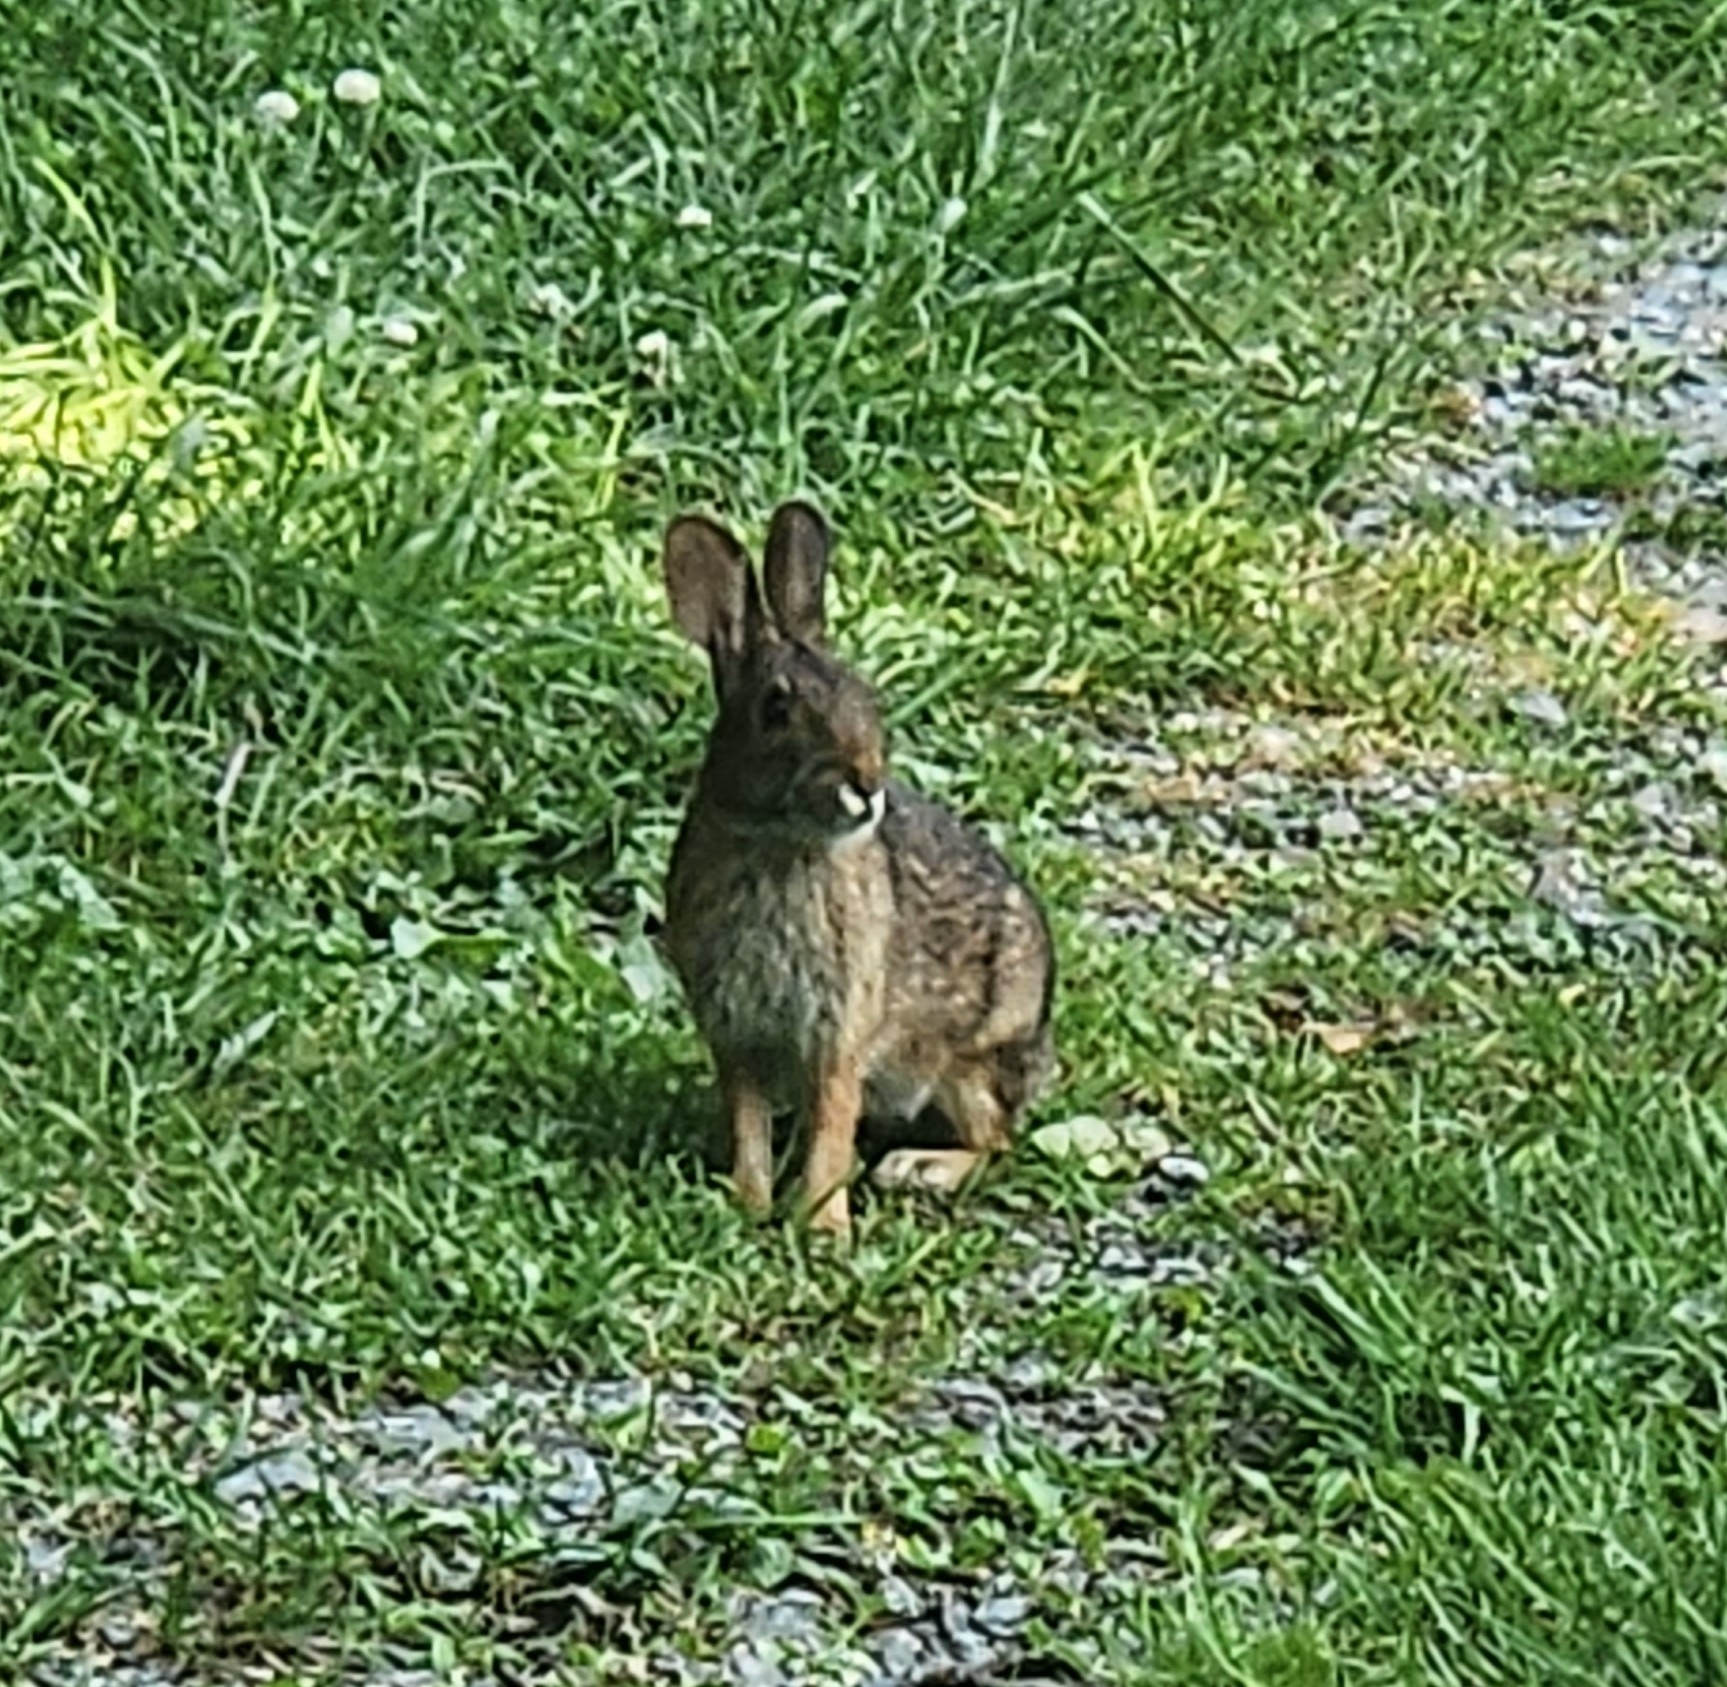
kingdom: Animalia
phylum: Chordata
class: Mammalia
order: Lagomorpha
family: Leporidae
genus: Sylvilagus
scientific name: Sylvilagus obscurus
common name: Appalachian cottontail
